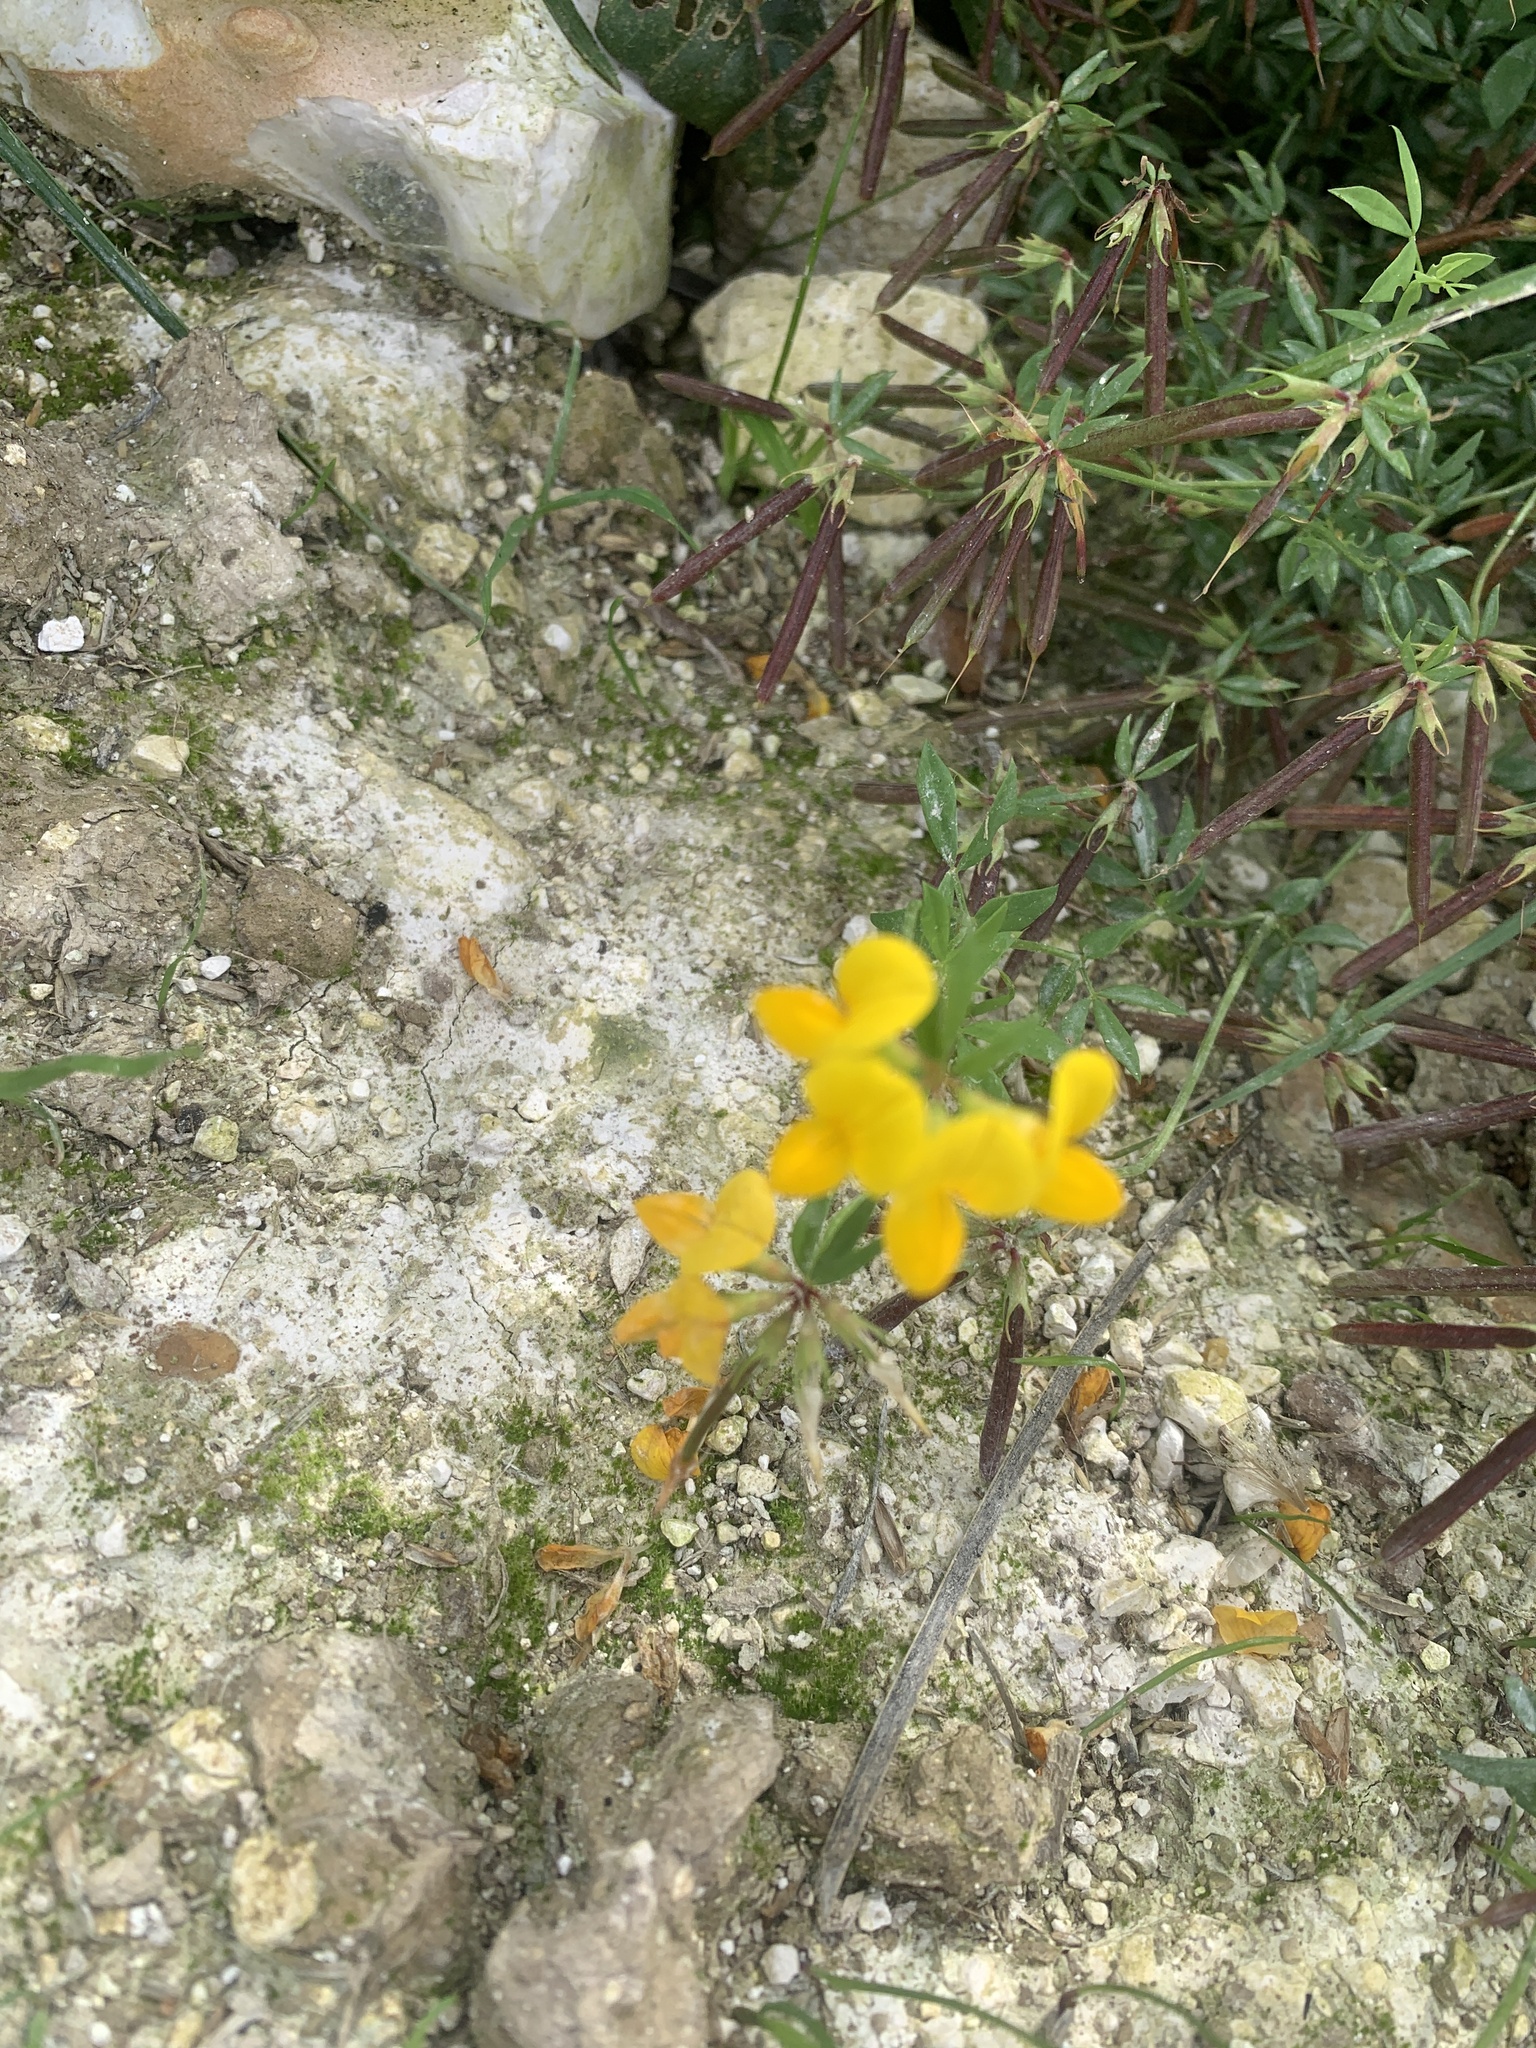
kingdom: Plantae
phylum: Tracheophyta
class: Magnoliopsida
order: Fabales
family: Fabaceae
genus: Lotus
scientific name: Lotus corniculatus
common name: Common bird's-foot-trefoil
